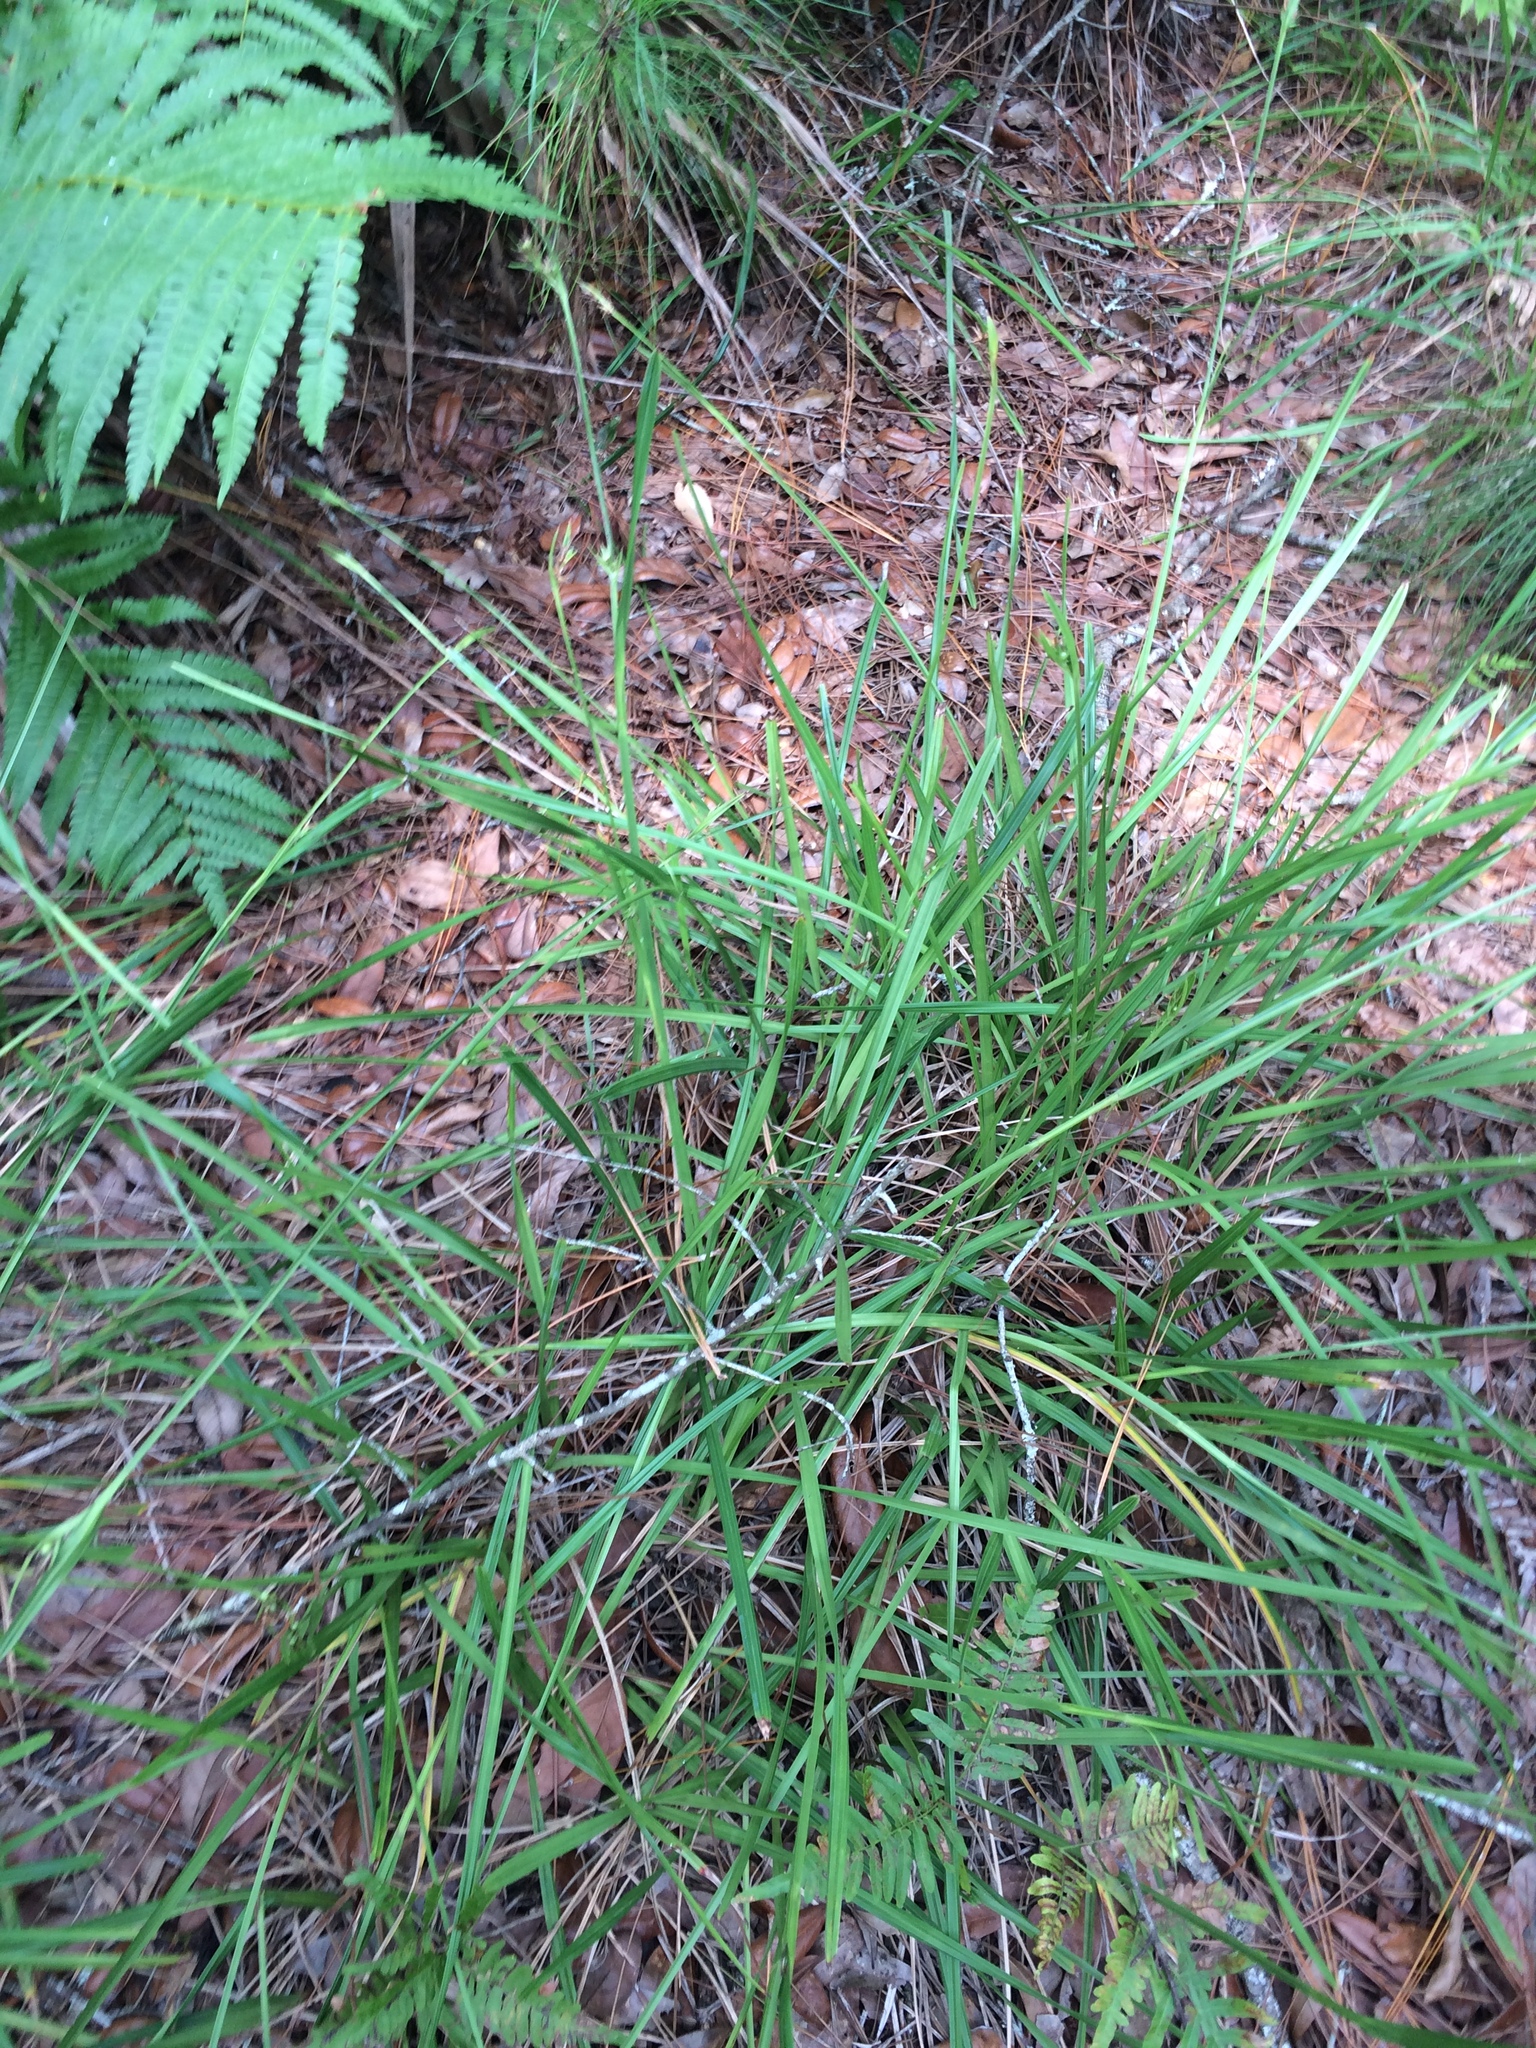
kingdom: Plantae
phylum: Tracheophyta
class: Liliopsida
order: Poales
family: Cyperaceae
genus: Scleria
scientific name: Scleria triglomerata
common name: Whip nutrush
